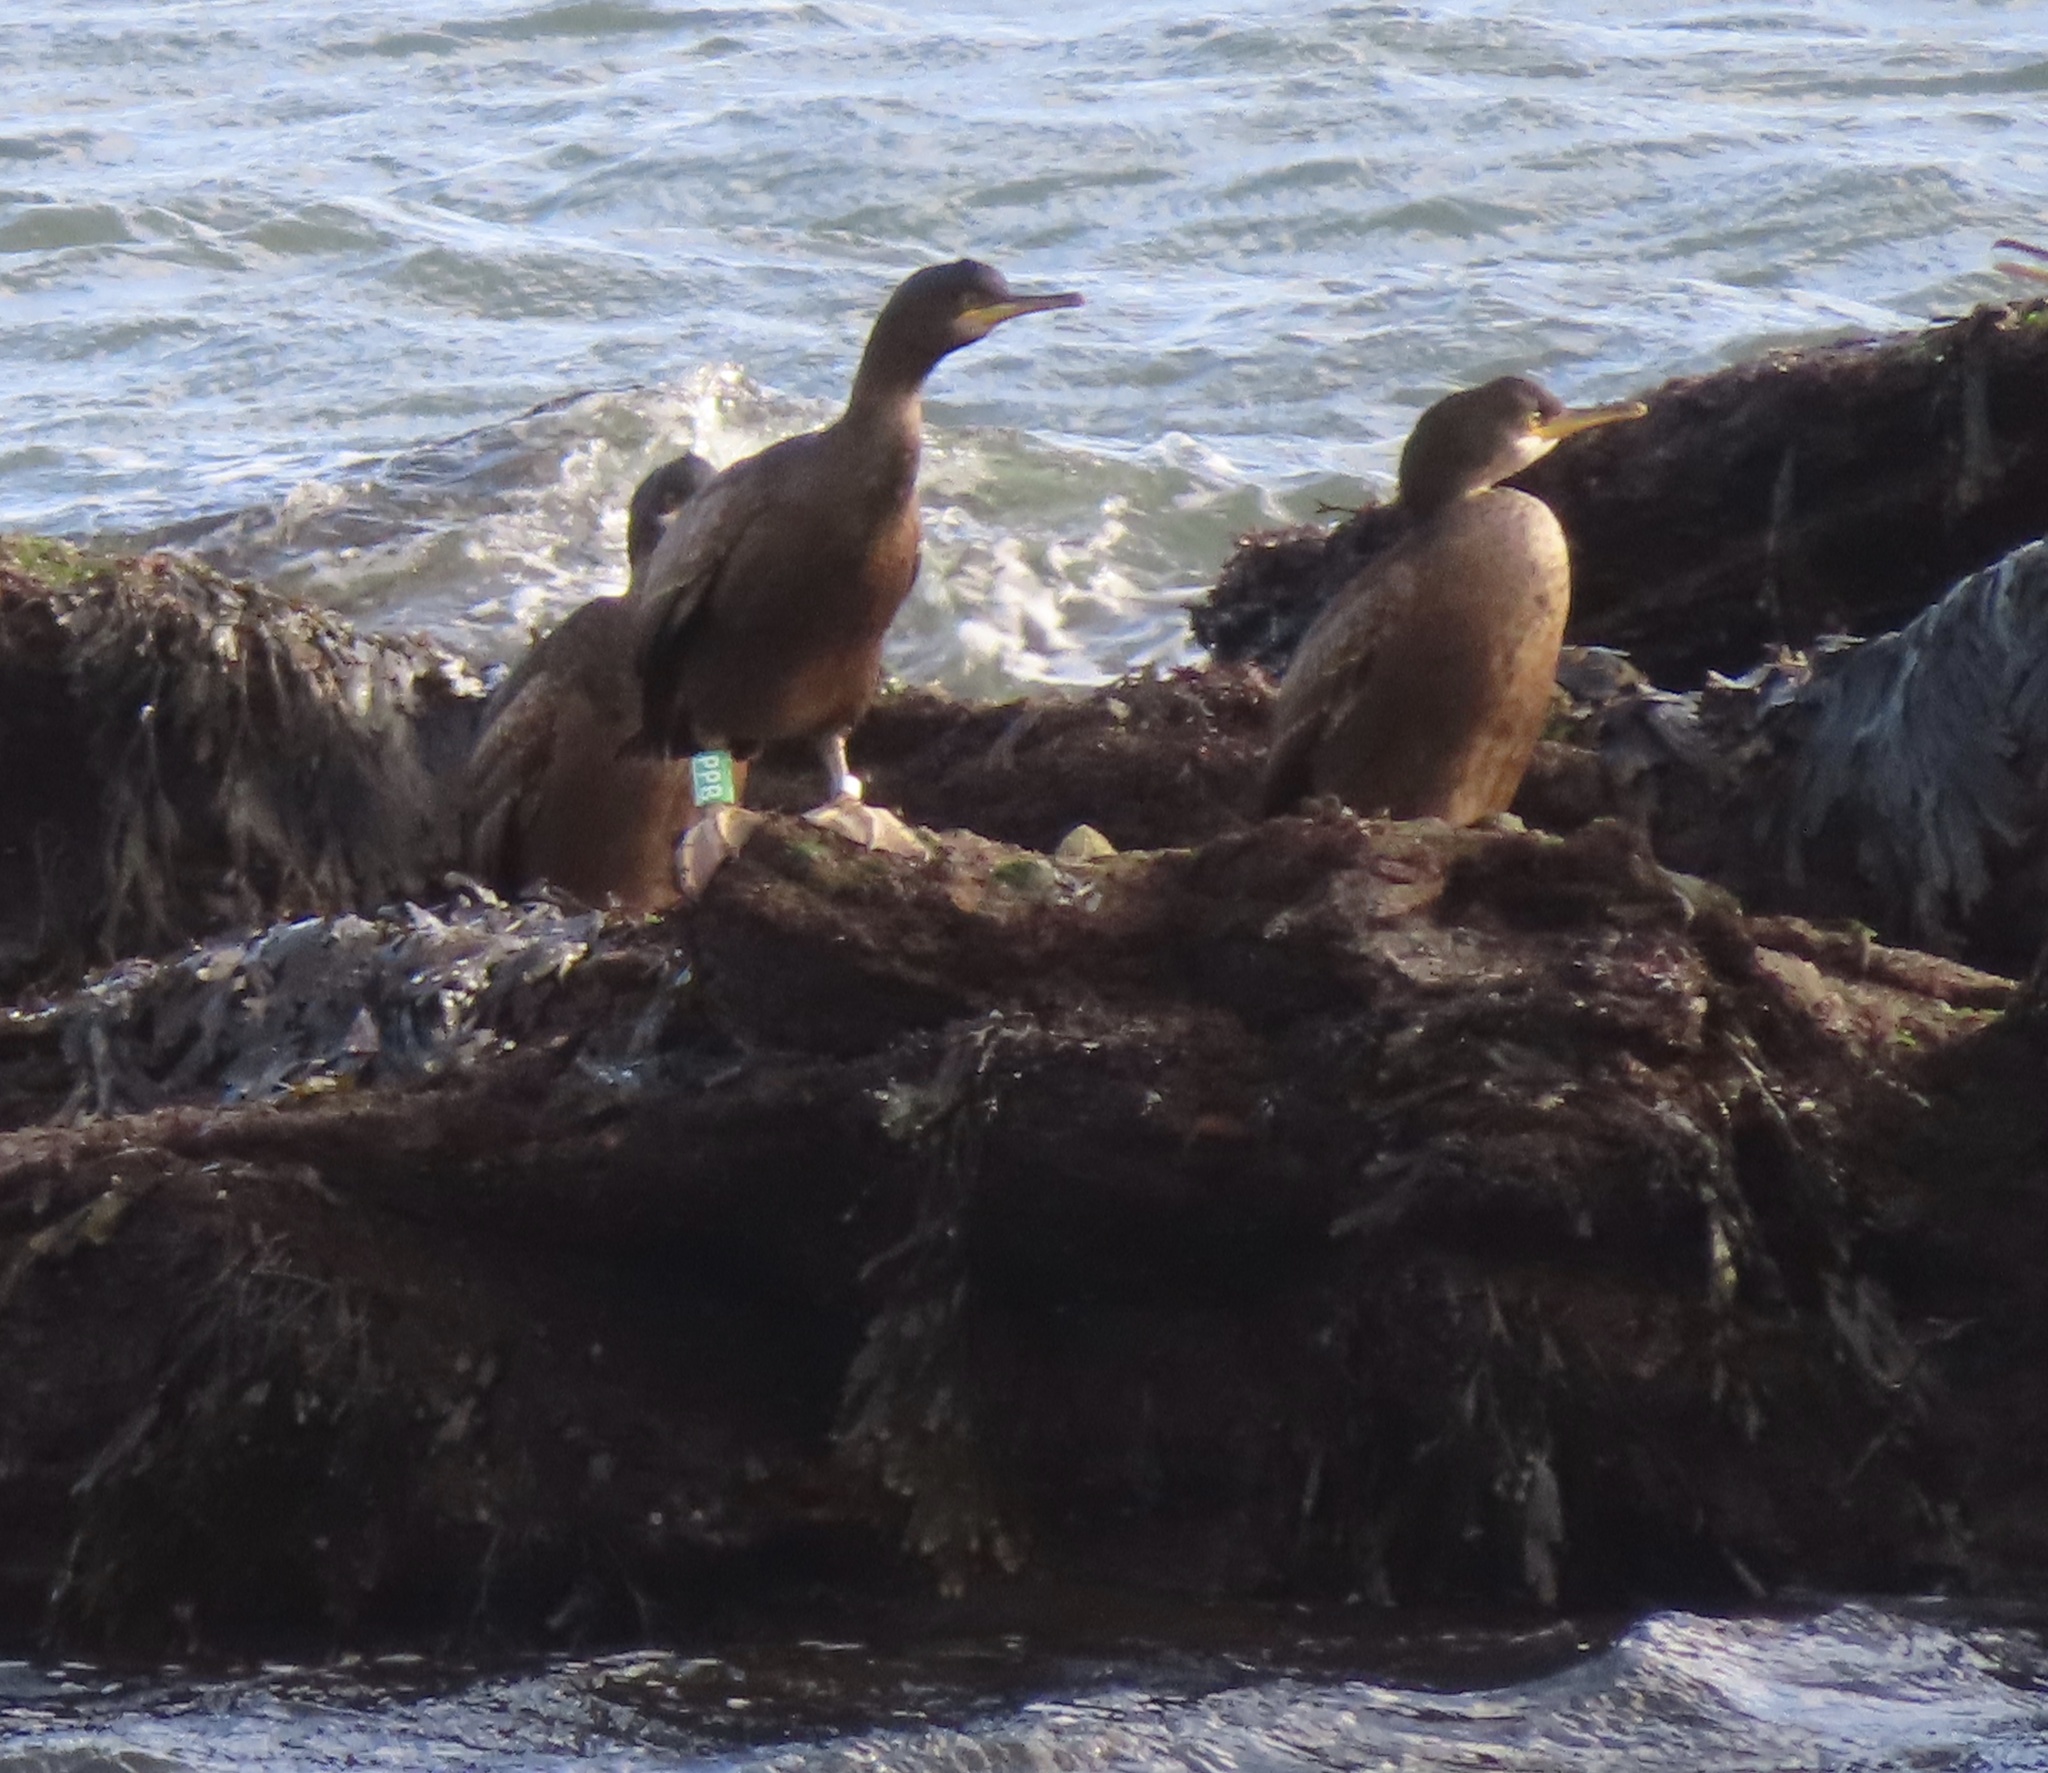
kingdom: Animalia
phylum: Chordata
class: Aves
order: Suliformes
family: Phalacrocoracidae
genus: Phalacrocorax
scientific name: Phalacrocorax aristotelis
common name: European shag
